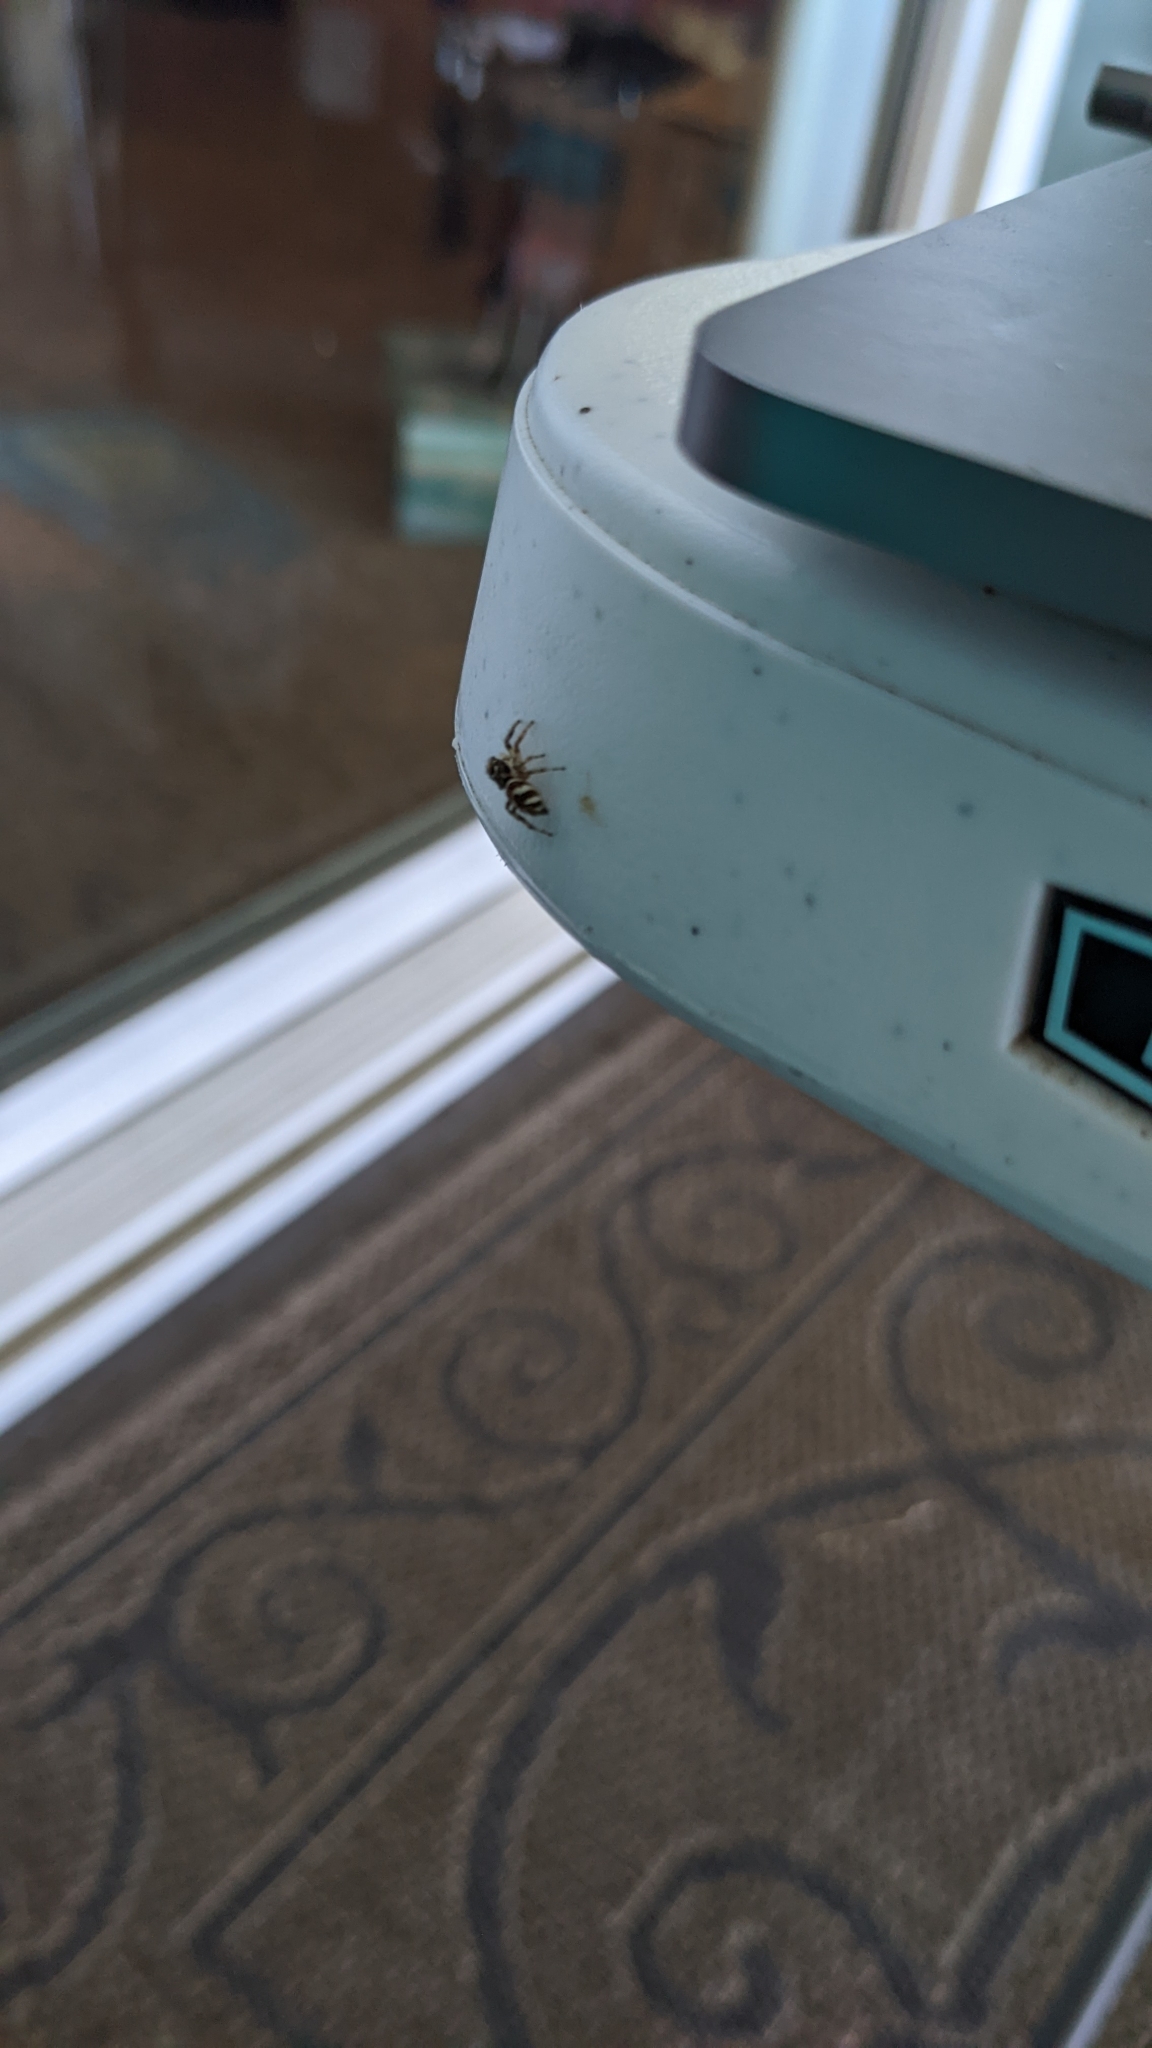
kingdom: Animalia
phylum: Arthropoda
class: Arachnida
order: Araneae
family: Salticidae
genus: Salticus
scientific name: Salticus scenicus
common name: Zebra jumper
